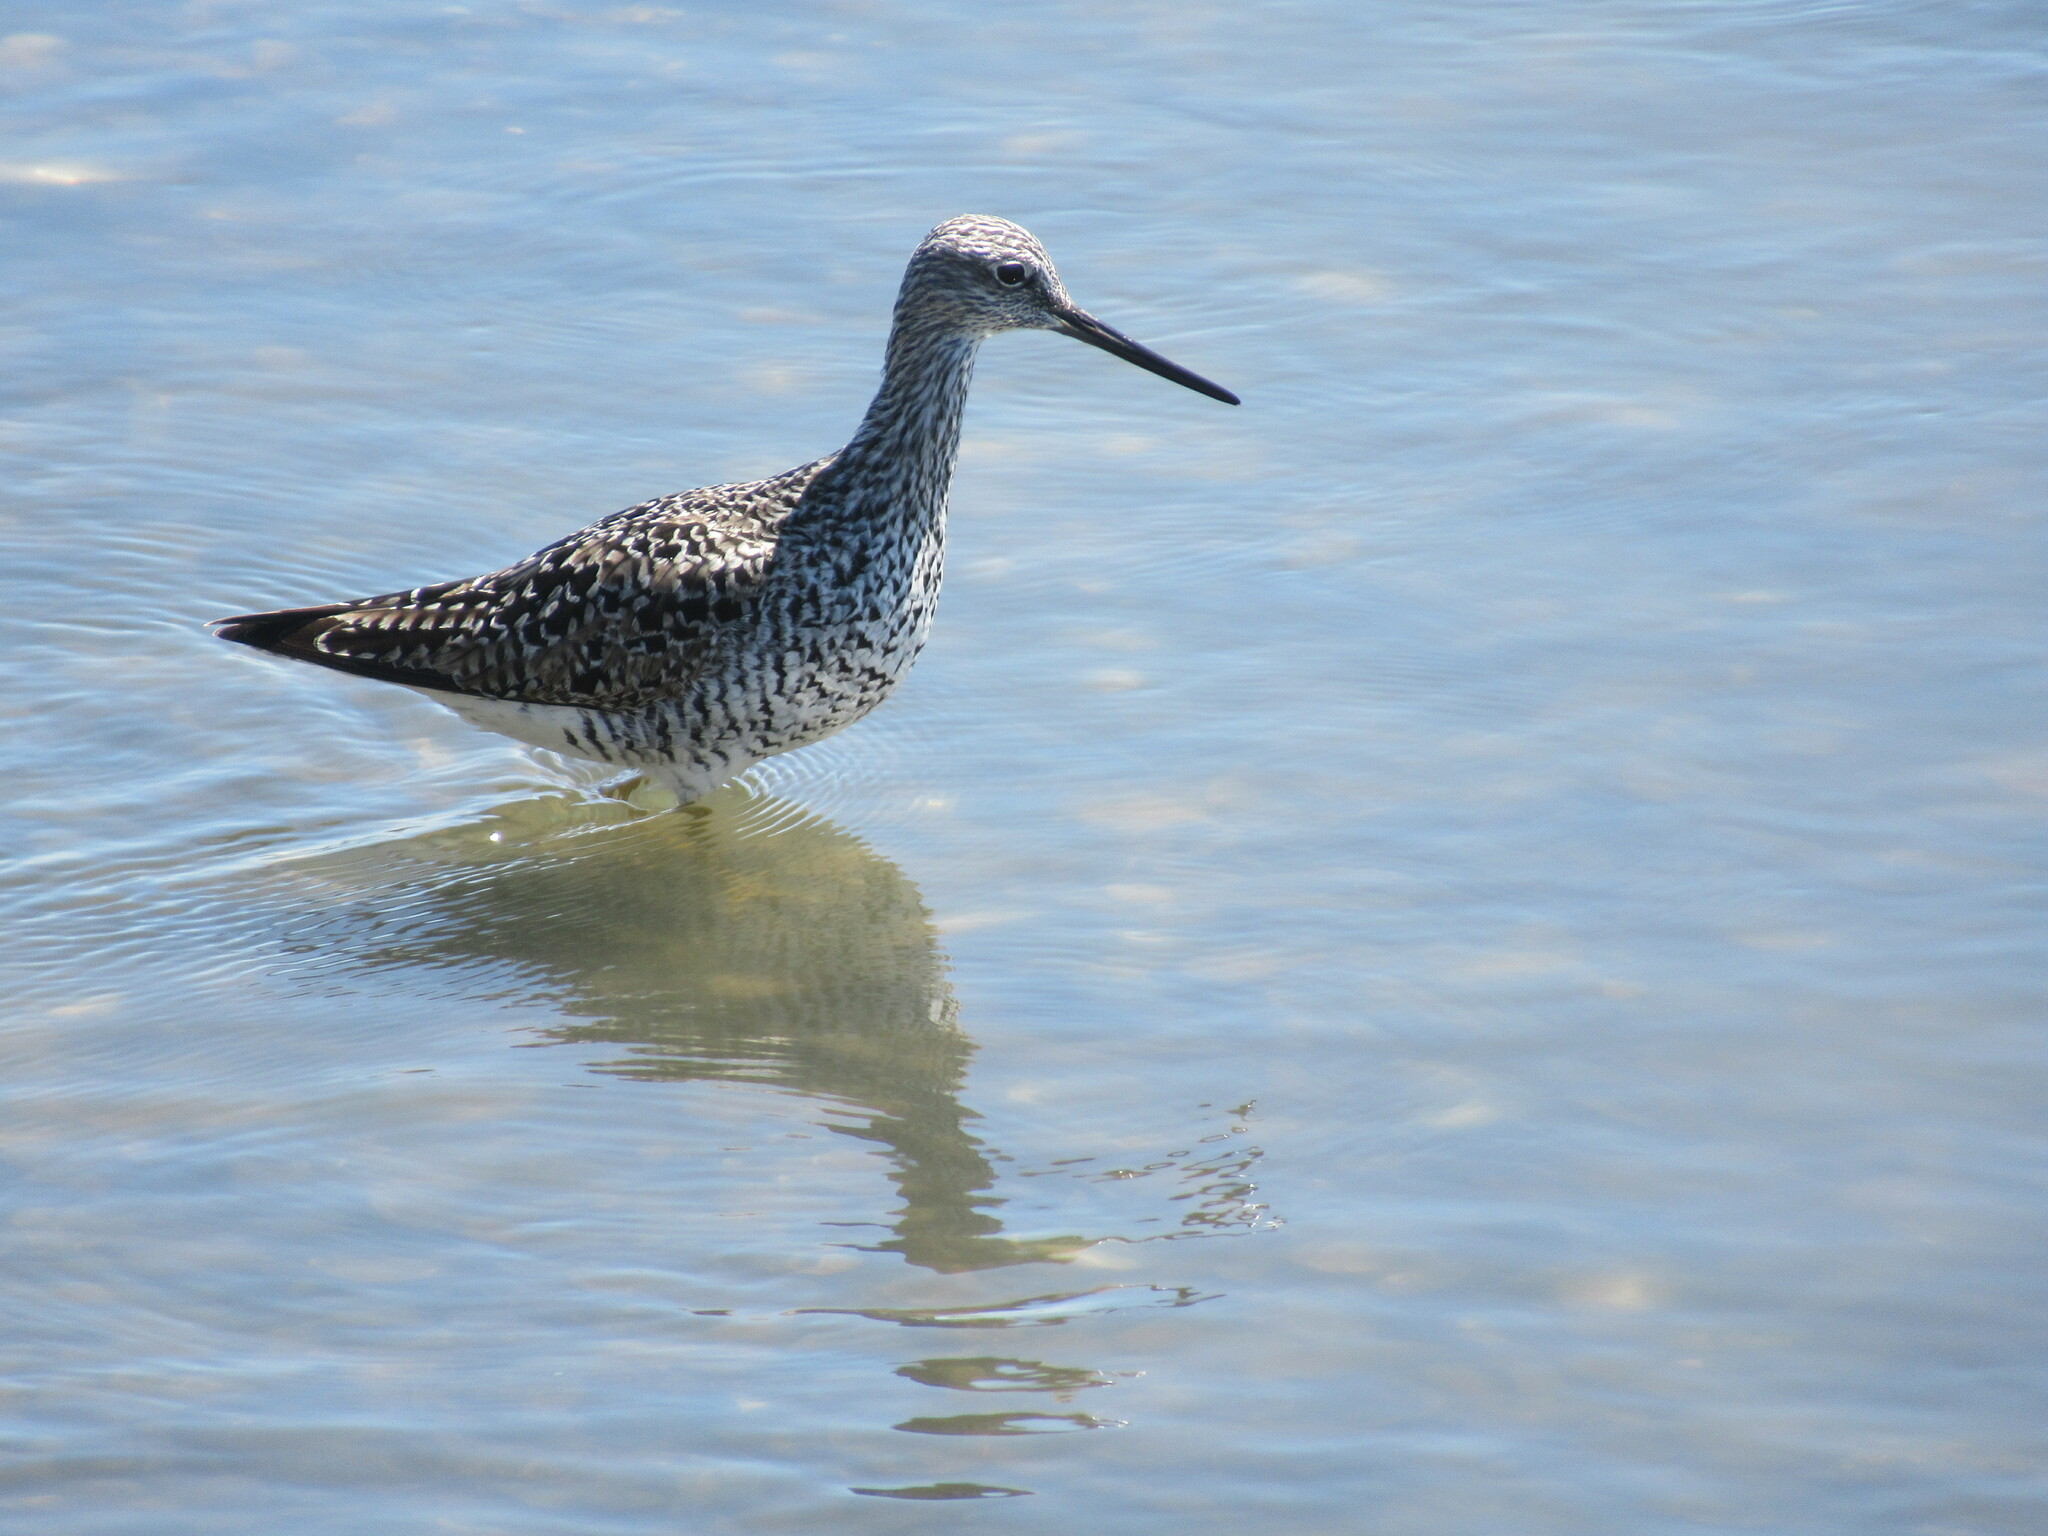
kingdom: Animalia
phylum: Chordata
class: Aves
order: Charadriiformes
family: Scolopacidae
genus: Tringa
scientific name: Tringa melanoleuca
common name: Greater yellowlegs
